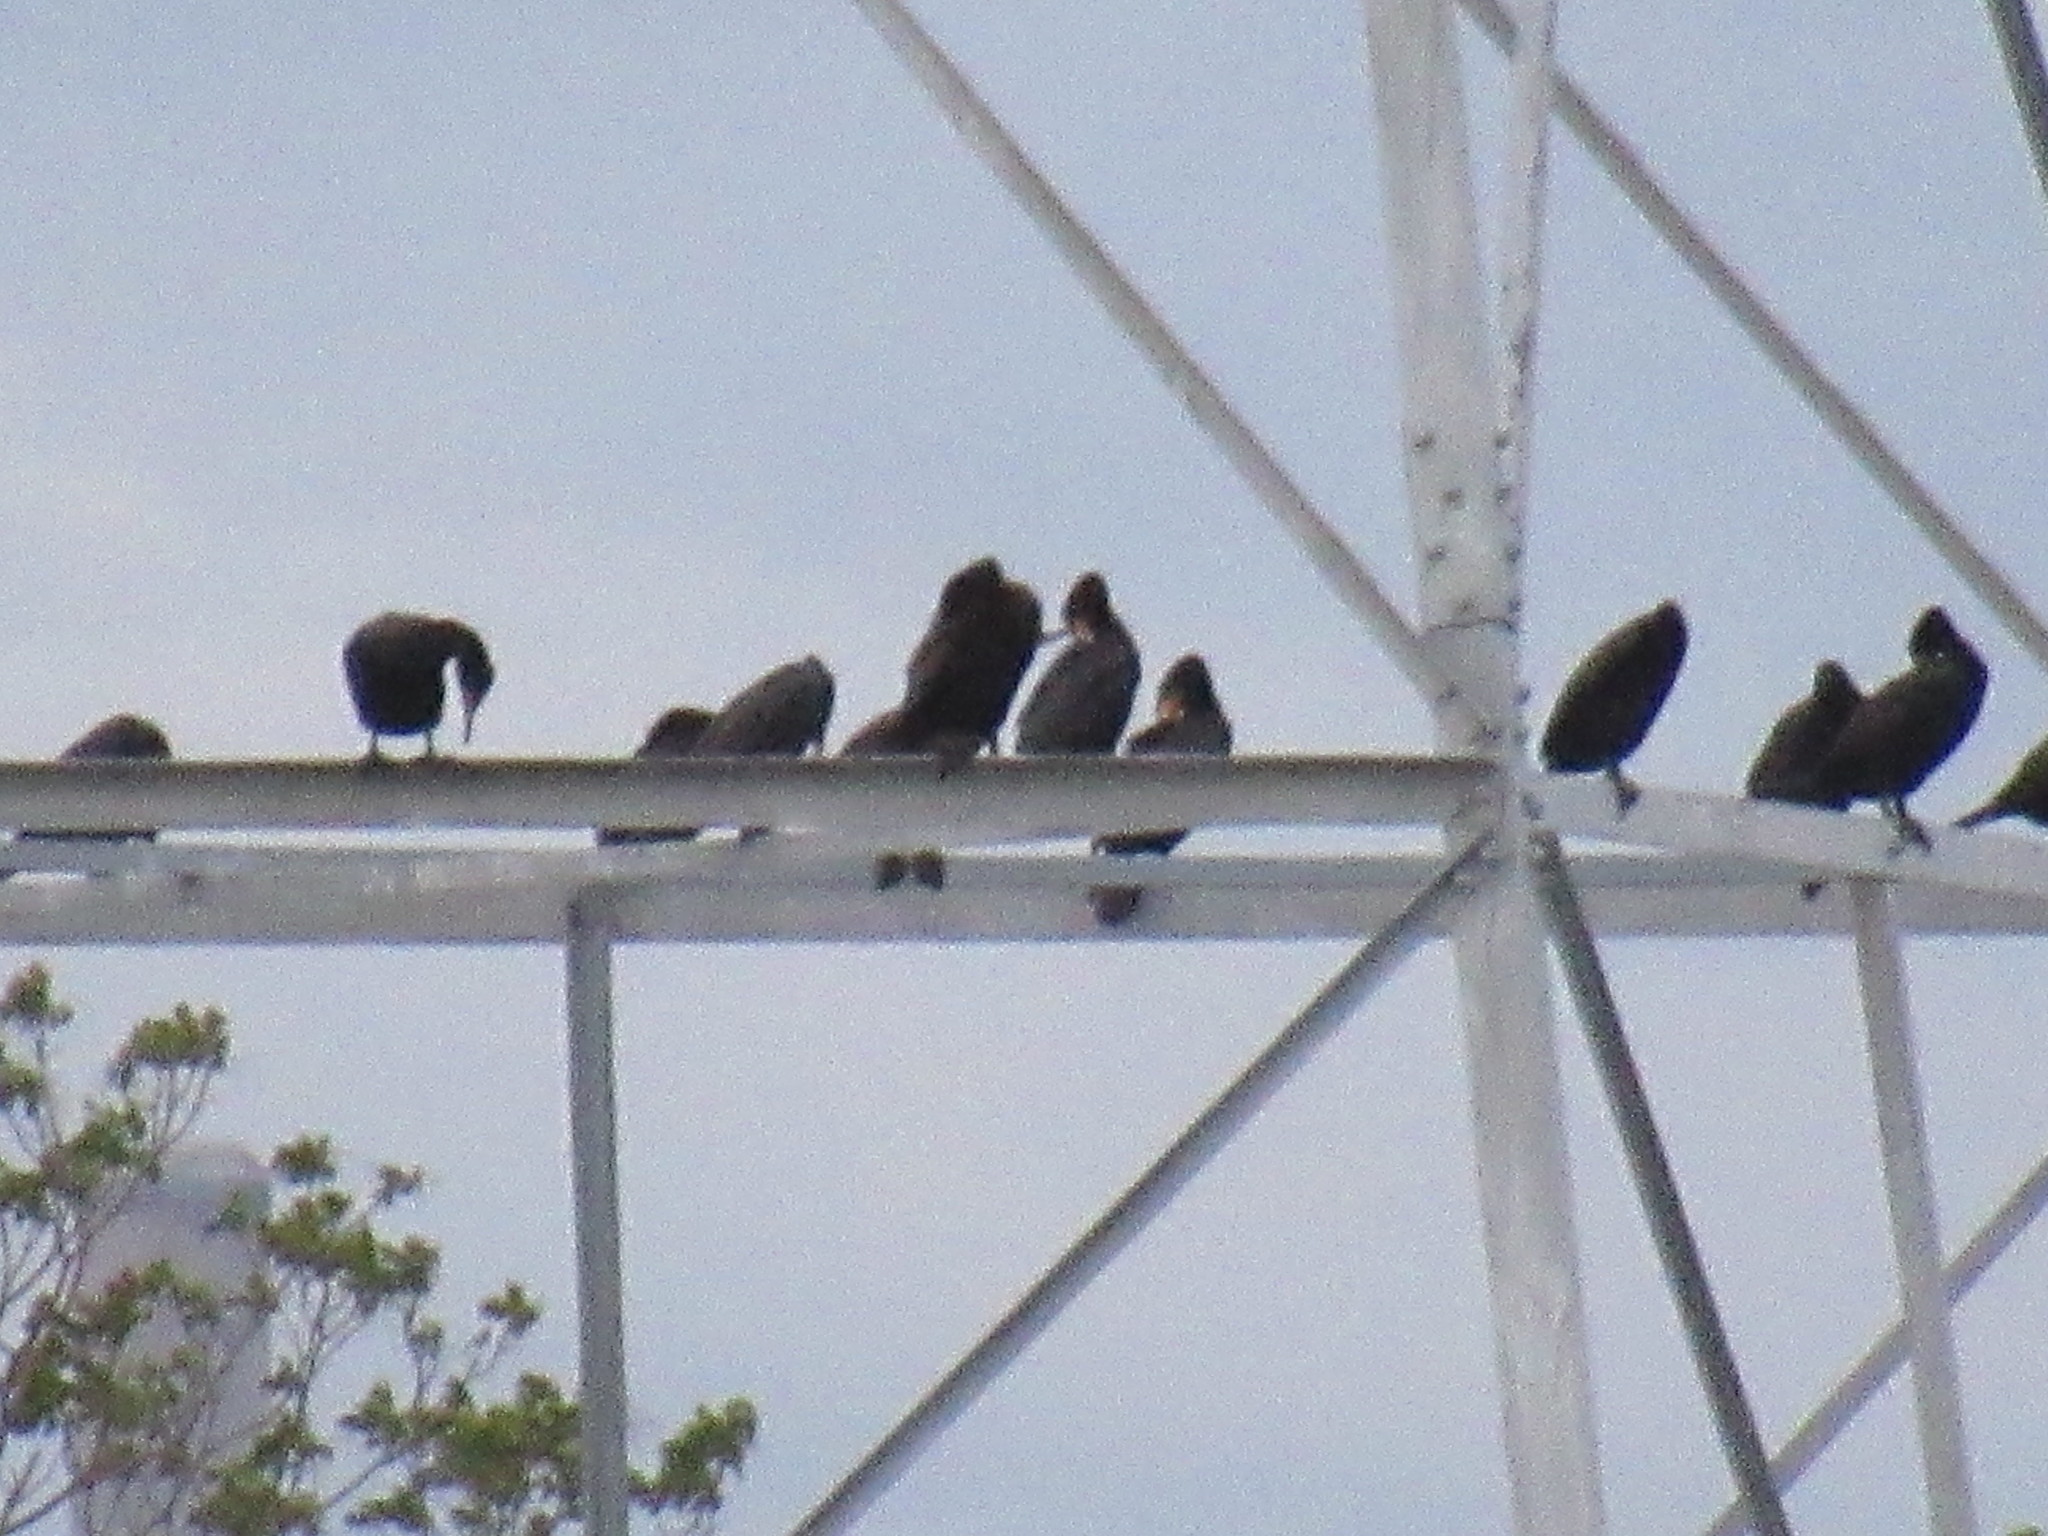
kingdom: Animalia
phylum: Chordata
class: Aves
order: Suliformes
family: Phalacrocoracidae
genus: Phalacrocorax
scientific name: Phalacrocorax auritus
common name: Double-crested cormorant
